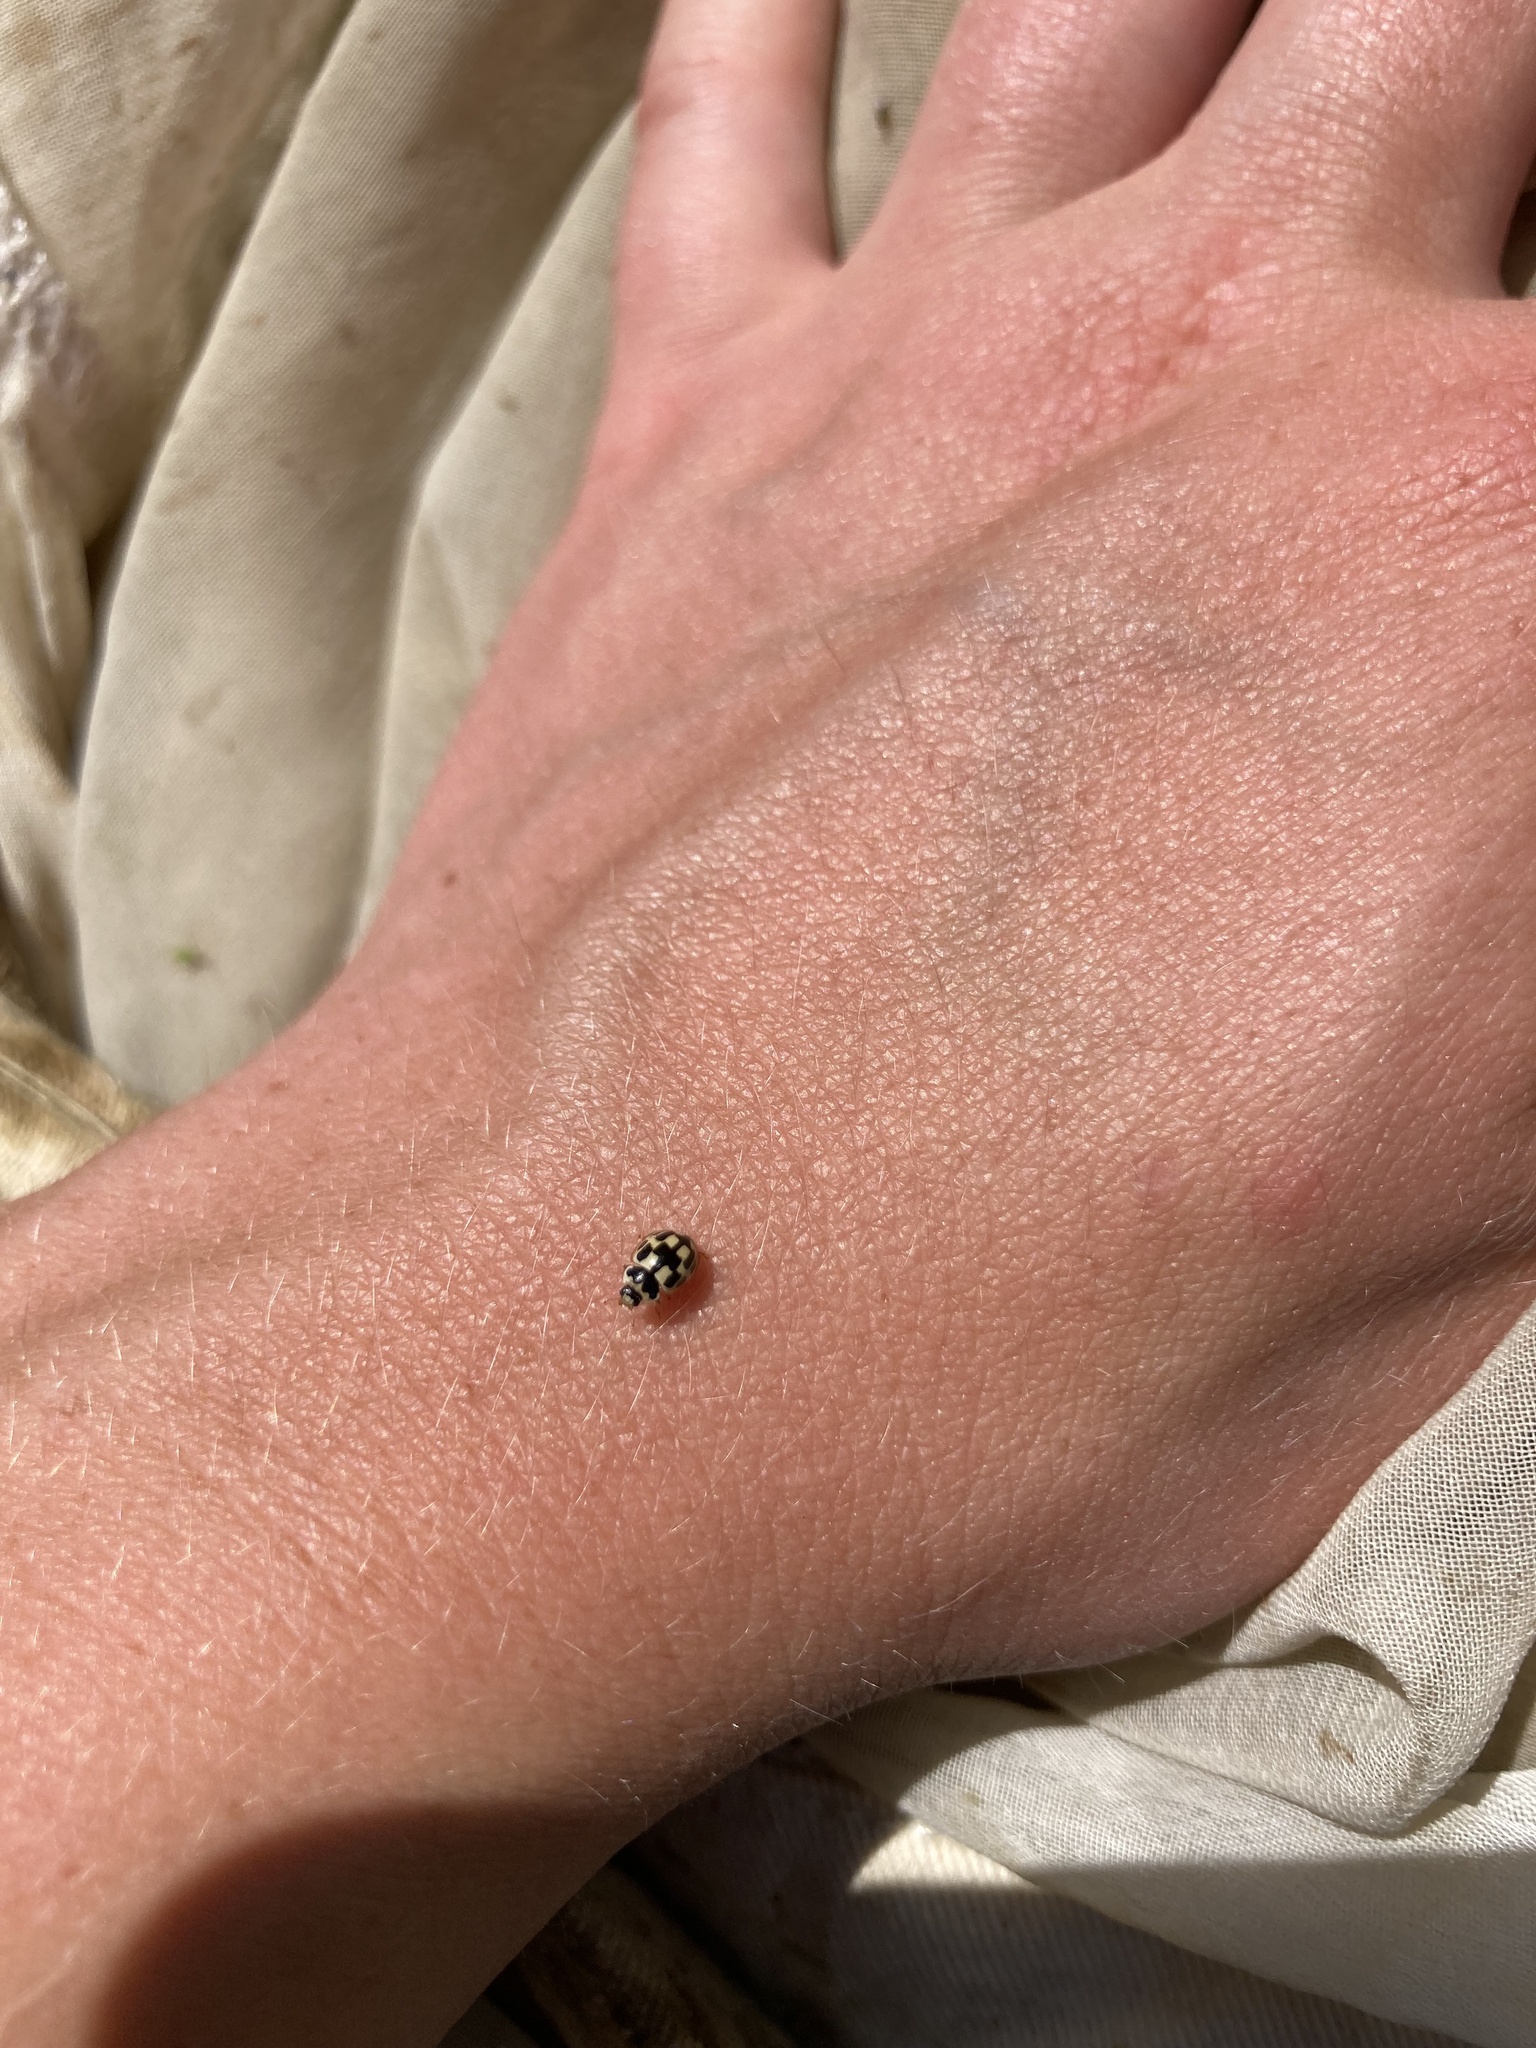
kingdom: Animalia
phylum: Arthropoda
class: Insecta
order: Coleoptera
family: Coccinellidae
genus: Propylaea
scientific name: Propylaea quatuordecimpunctata
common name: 14-spotted ladybird beetle
